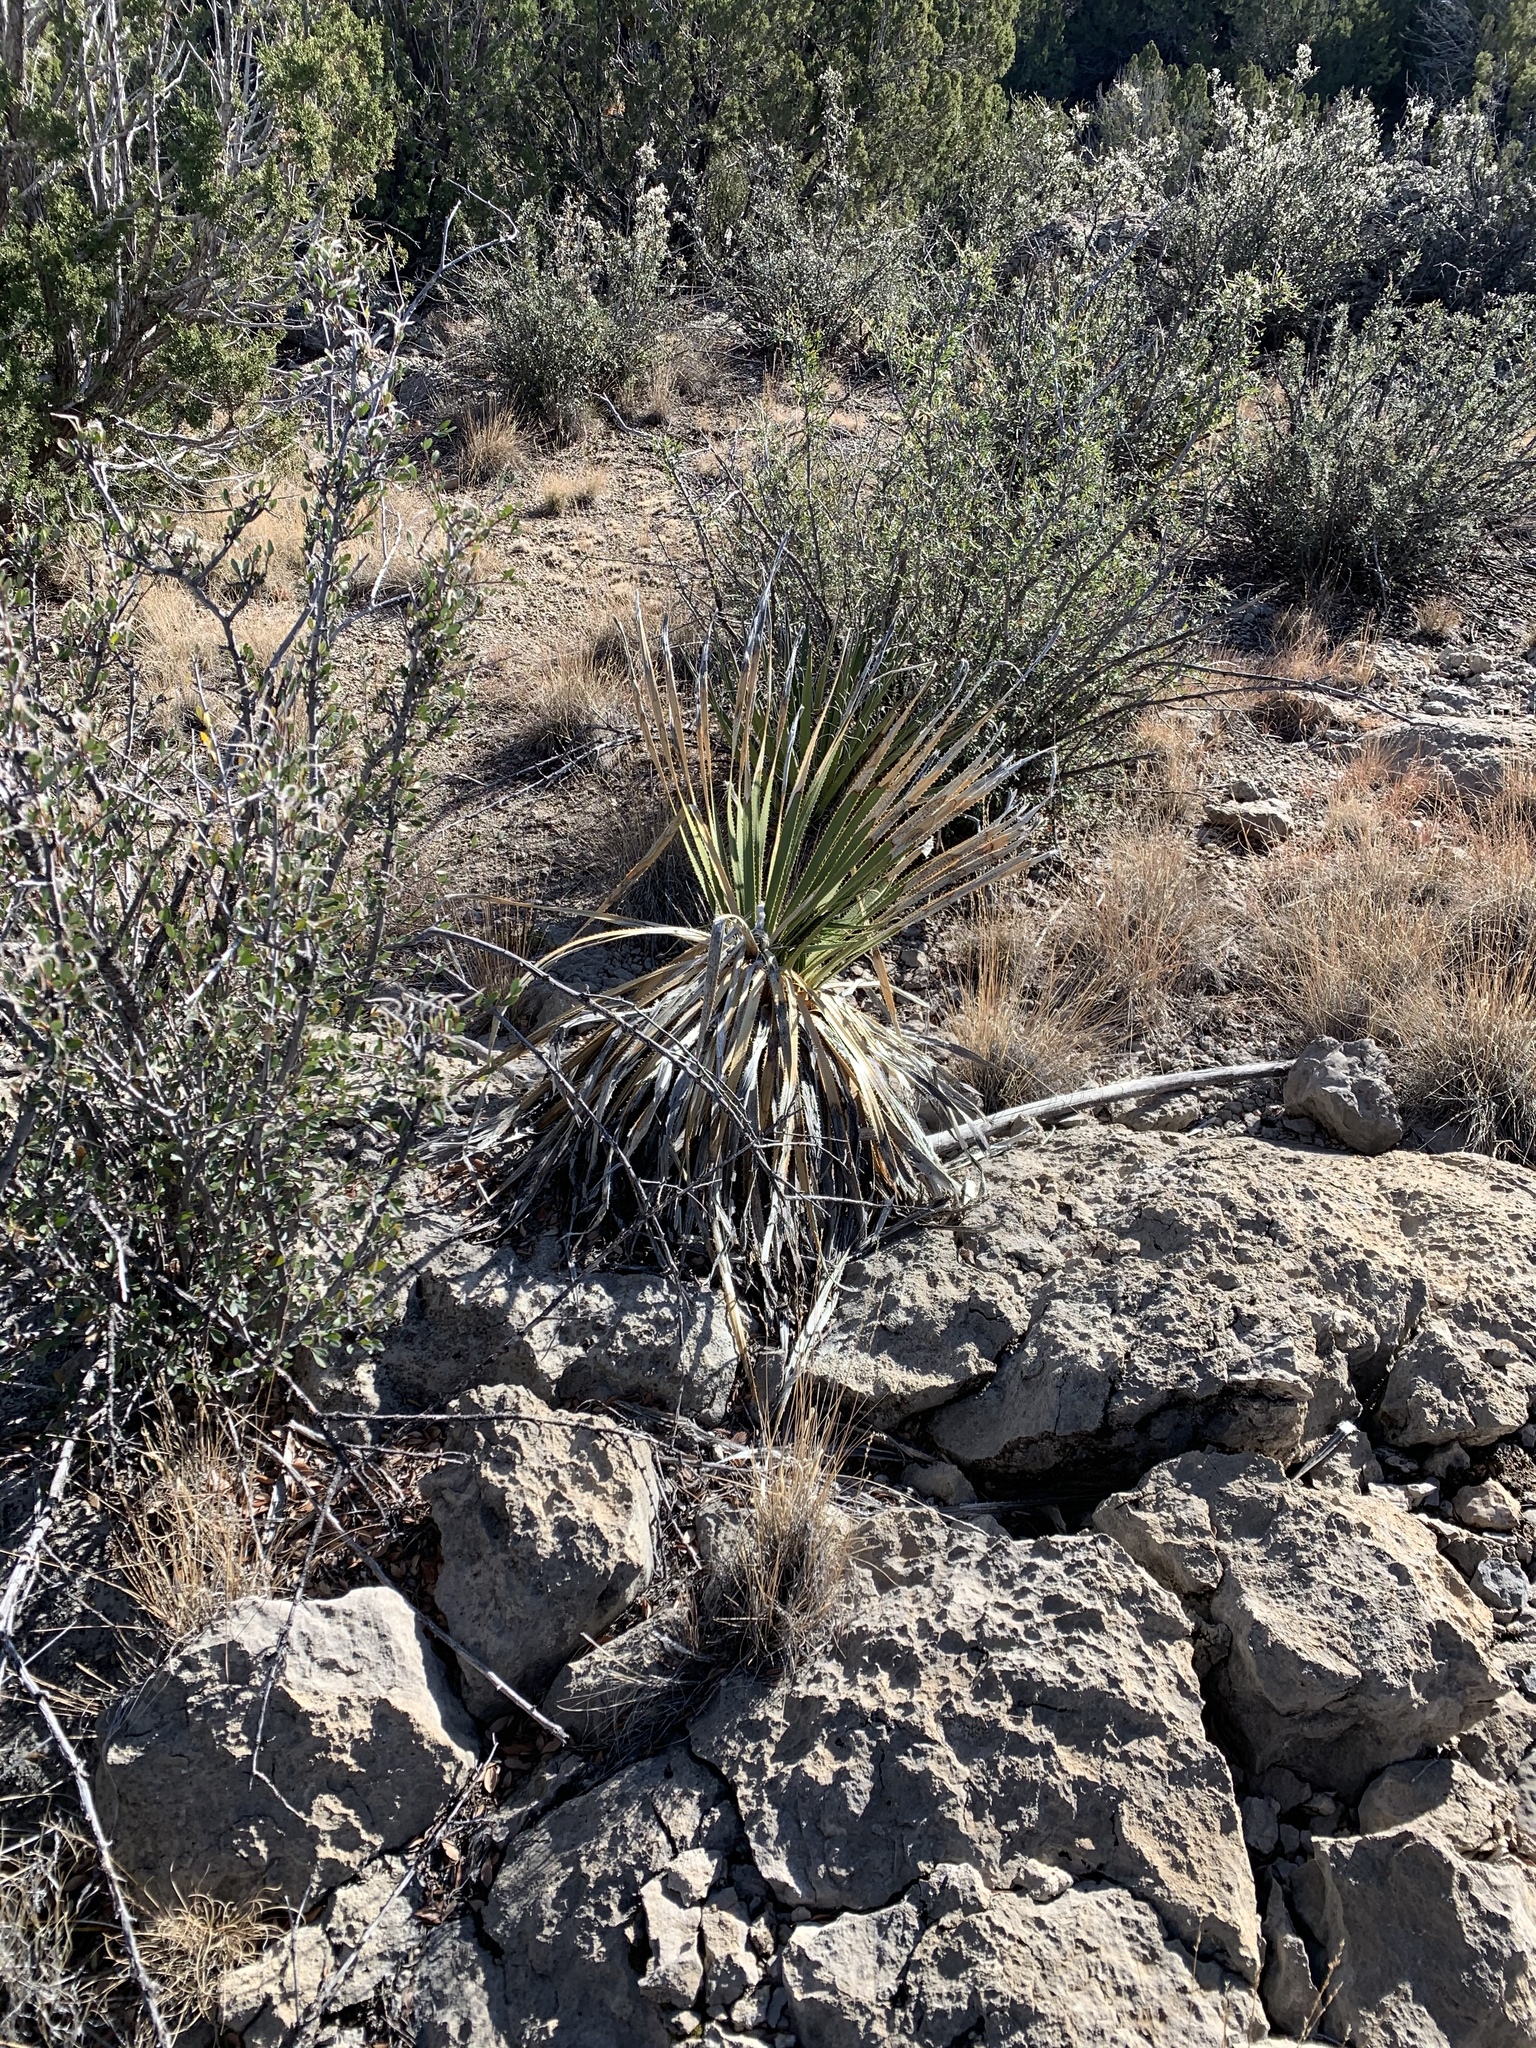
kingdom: Plantae
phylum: Tracheophyta
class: Liliopsida
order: Asparagales
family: Asparagaceae
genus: Dasylirion
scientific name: Dasylirion wheeleri
